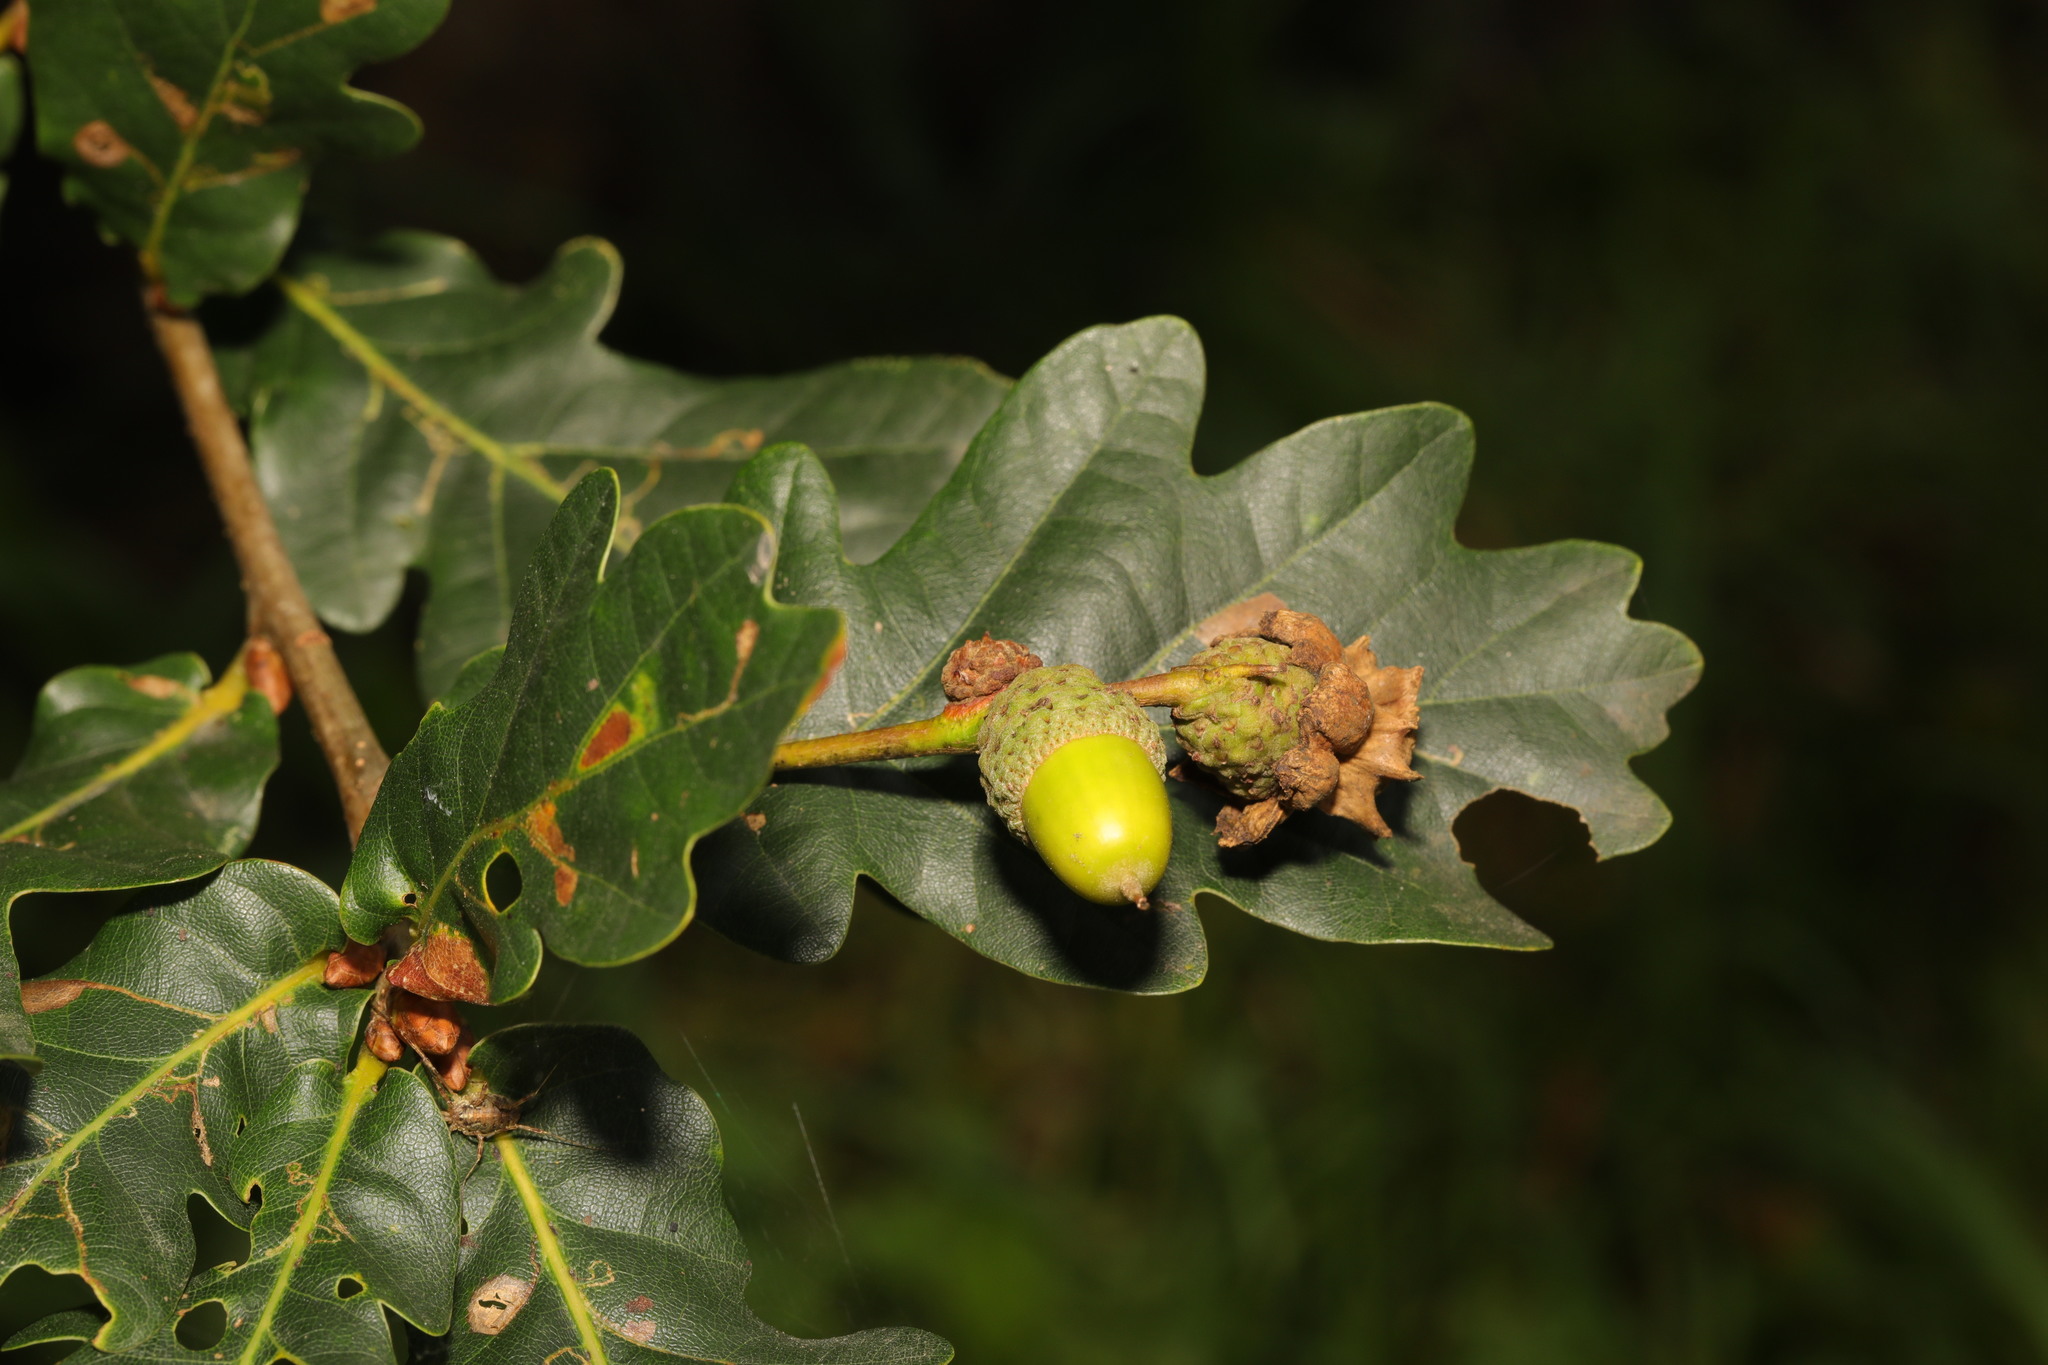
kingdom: Plantae
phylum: Tracheophyta
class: Magnoliopsida
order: Fagales
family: Fagaceae
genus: Quercus
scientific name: Quercus robur
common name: Pedunculate oak
